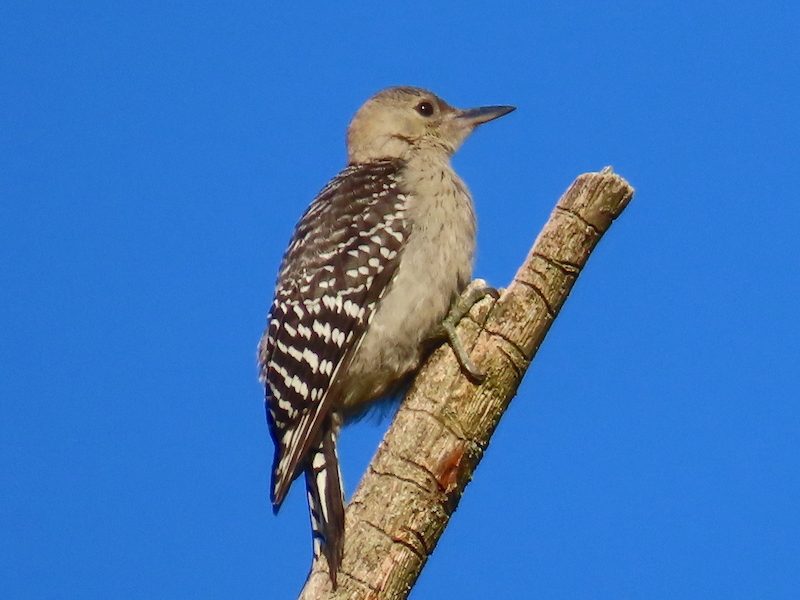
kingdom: Animalia
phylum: Chordata
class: Aves
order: Piciformes
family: Picidae
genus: Melanerpes
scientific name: Melanerpes carolinus
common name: Red-bellied woodpecker
